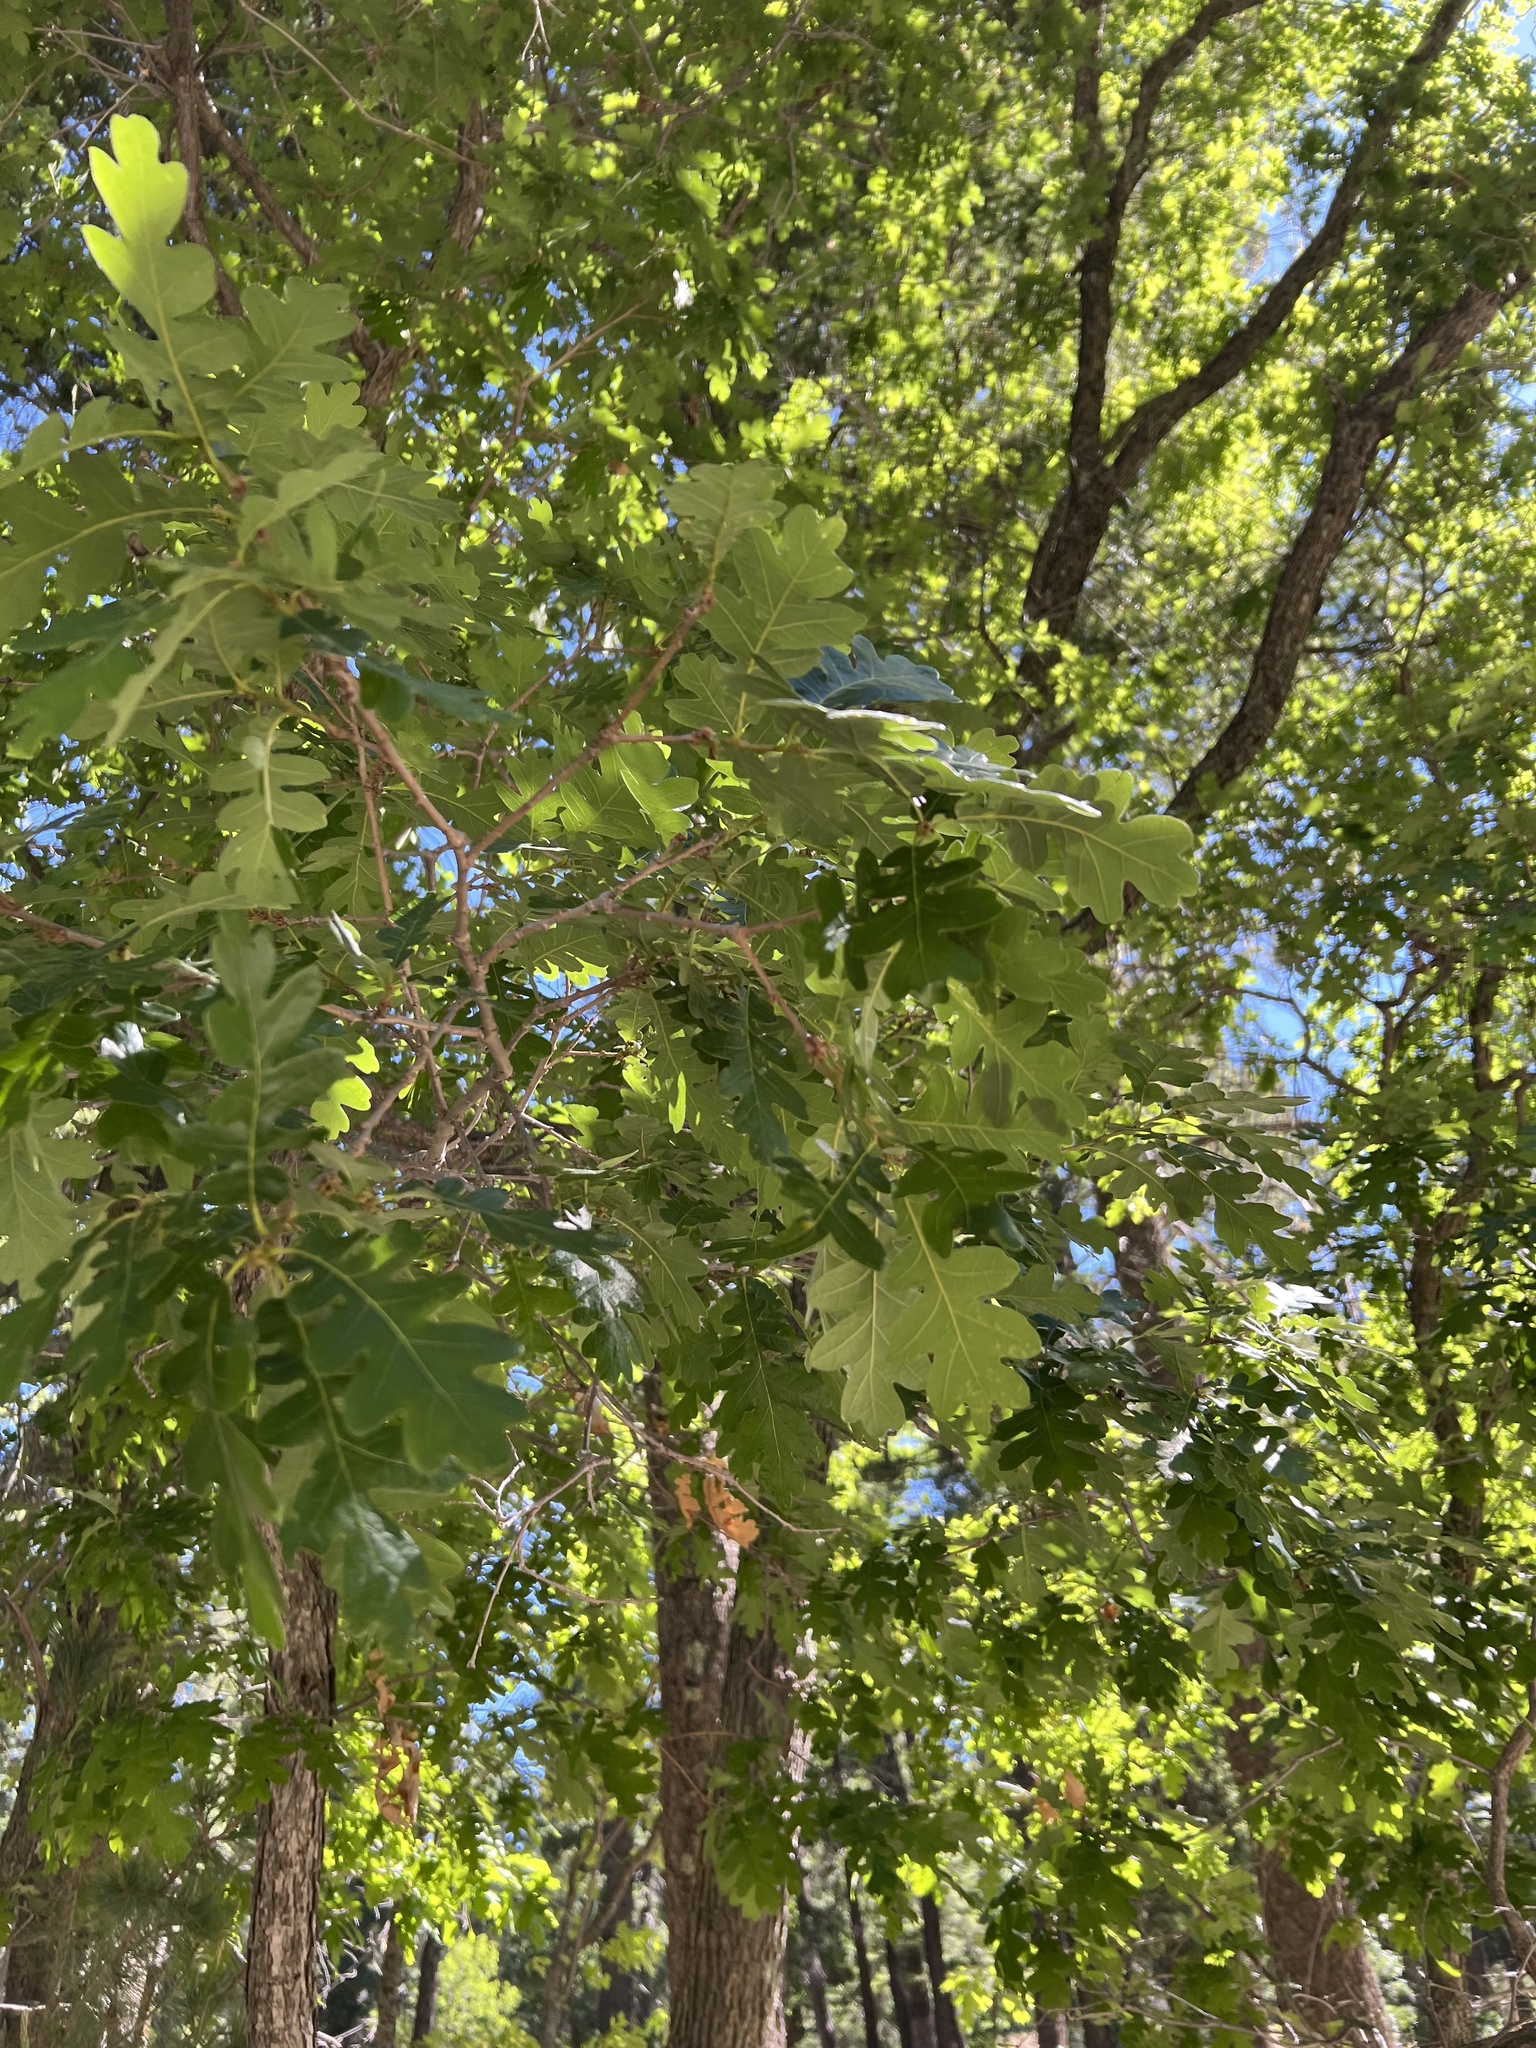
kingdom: Plantae
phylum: Tracheophyta
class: Magnoliopsida
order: Fagales
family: Fagaceae
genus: Quercus
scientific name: Quercus gambelii
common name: Gambel oak
